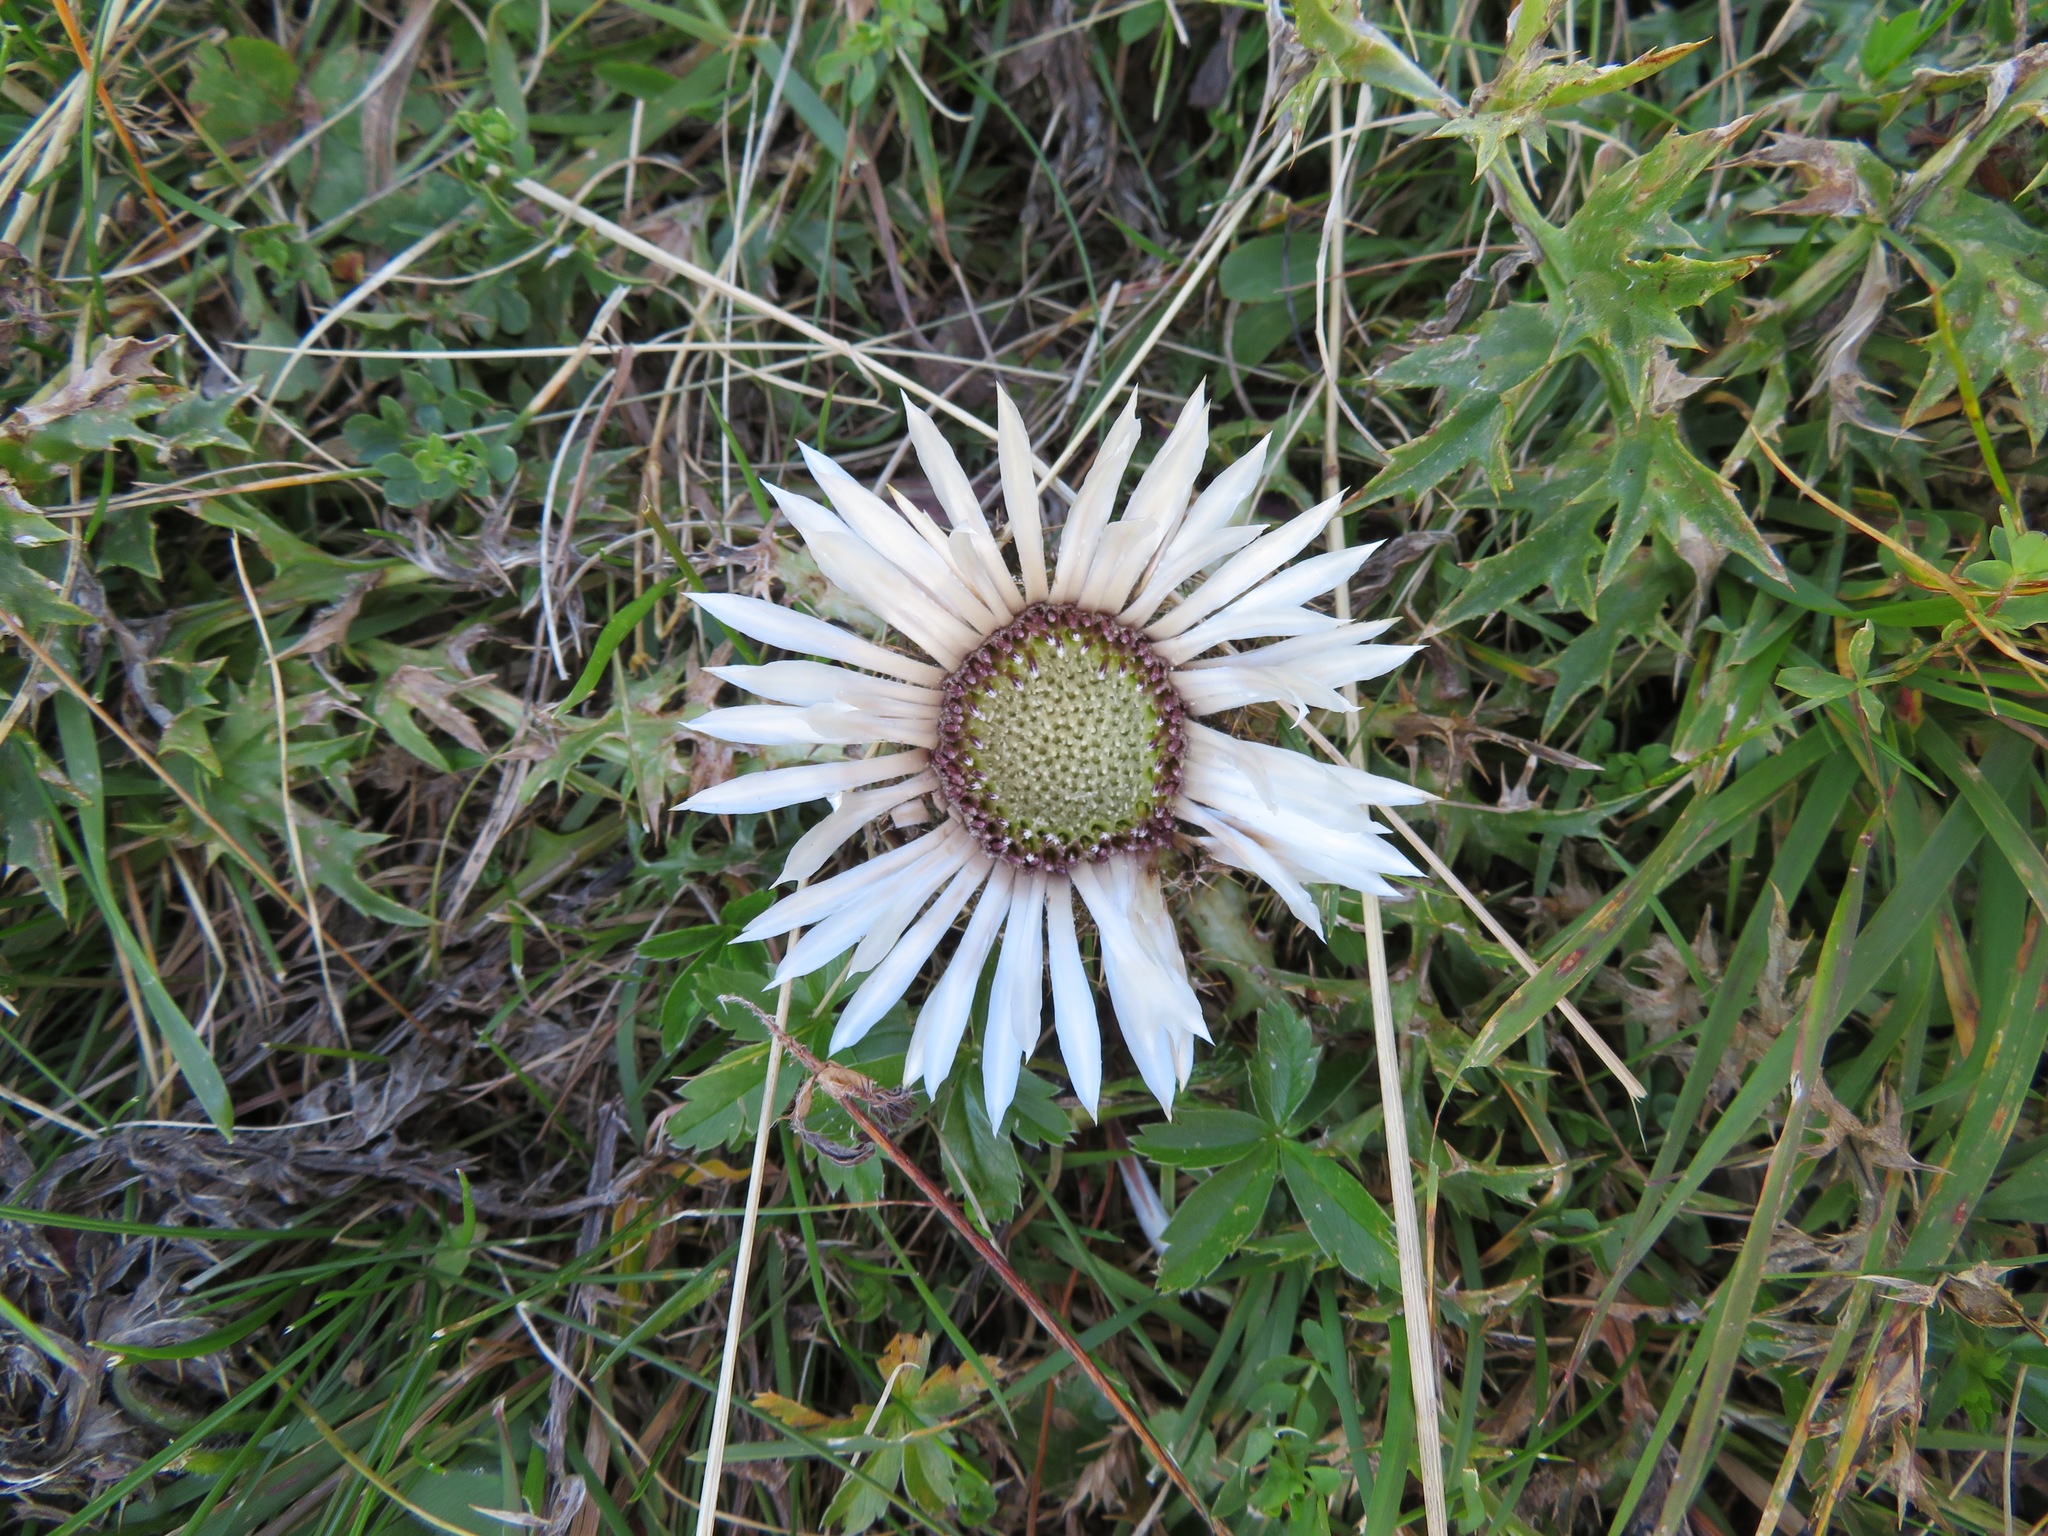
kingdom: Plantae
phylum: Tracheophyta
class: Magnoliopsida
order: Asterales
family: Asteraceae
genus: Carlina
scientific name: Carlina acaulis
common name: Stemless carline thistle
